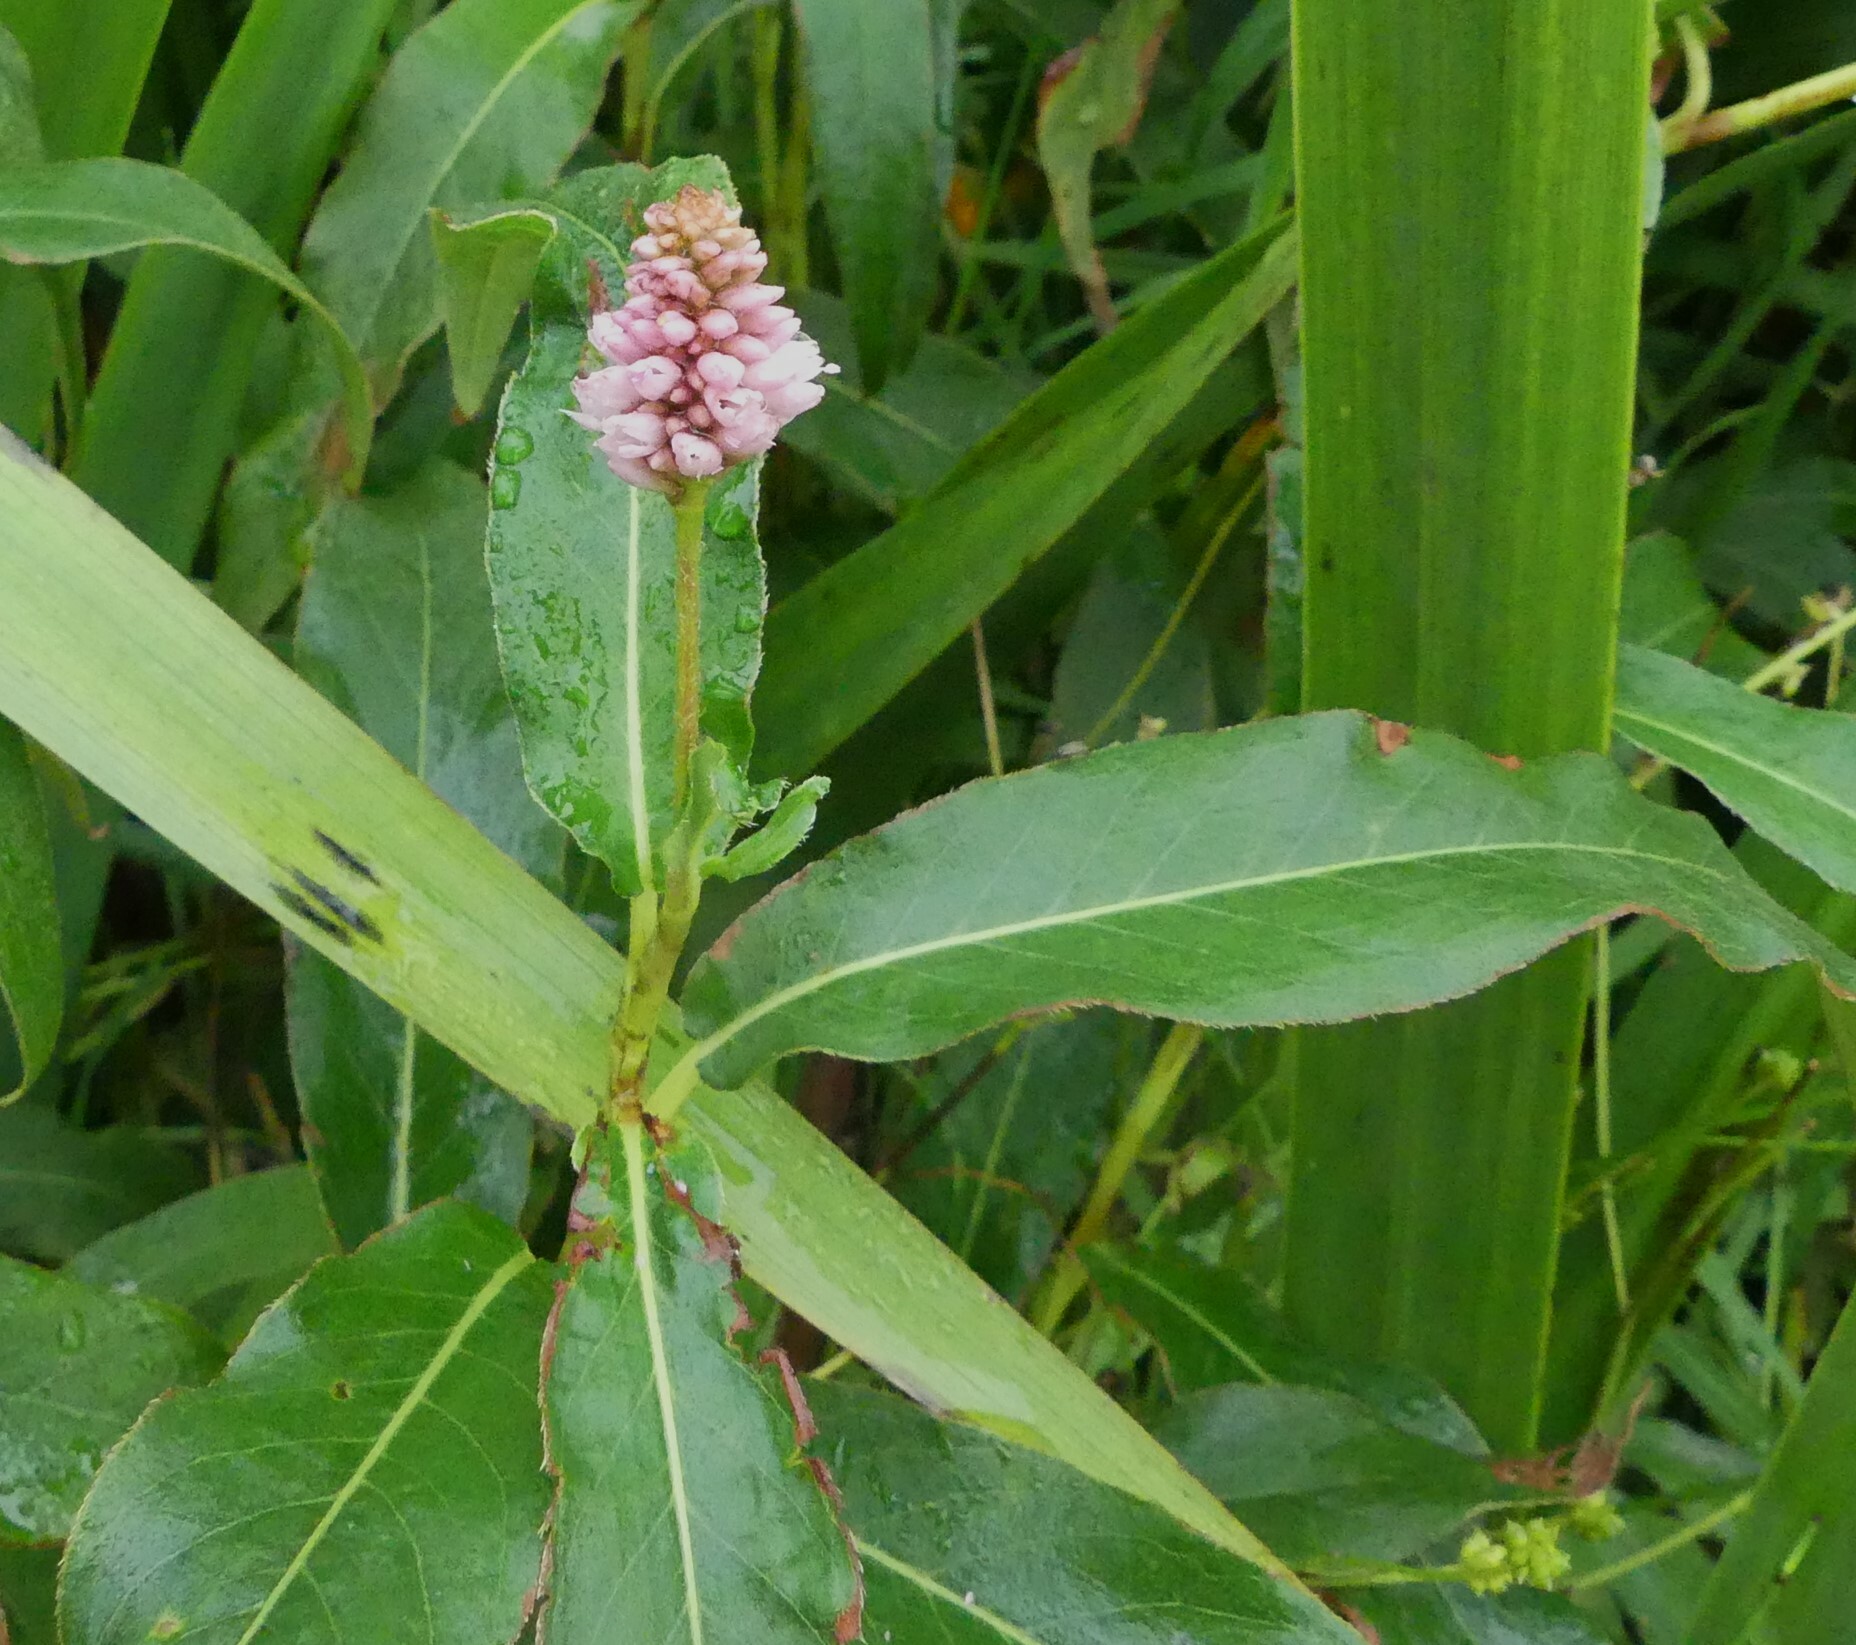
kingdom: Plantae
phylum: Tracheophyta
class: Magnoliopsida
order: Caryophyllales
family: Polygonaceae
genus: Persicaria
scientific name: Persicaria amphibia
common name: Amphibious bistort
